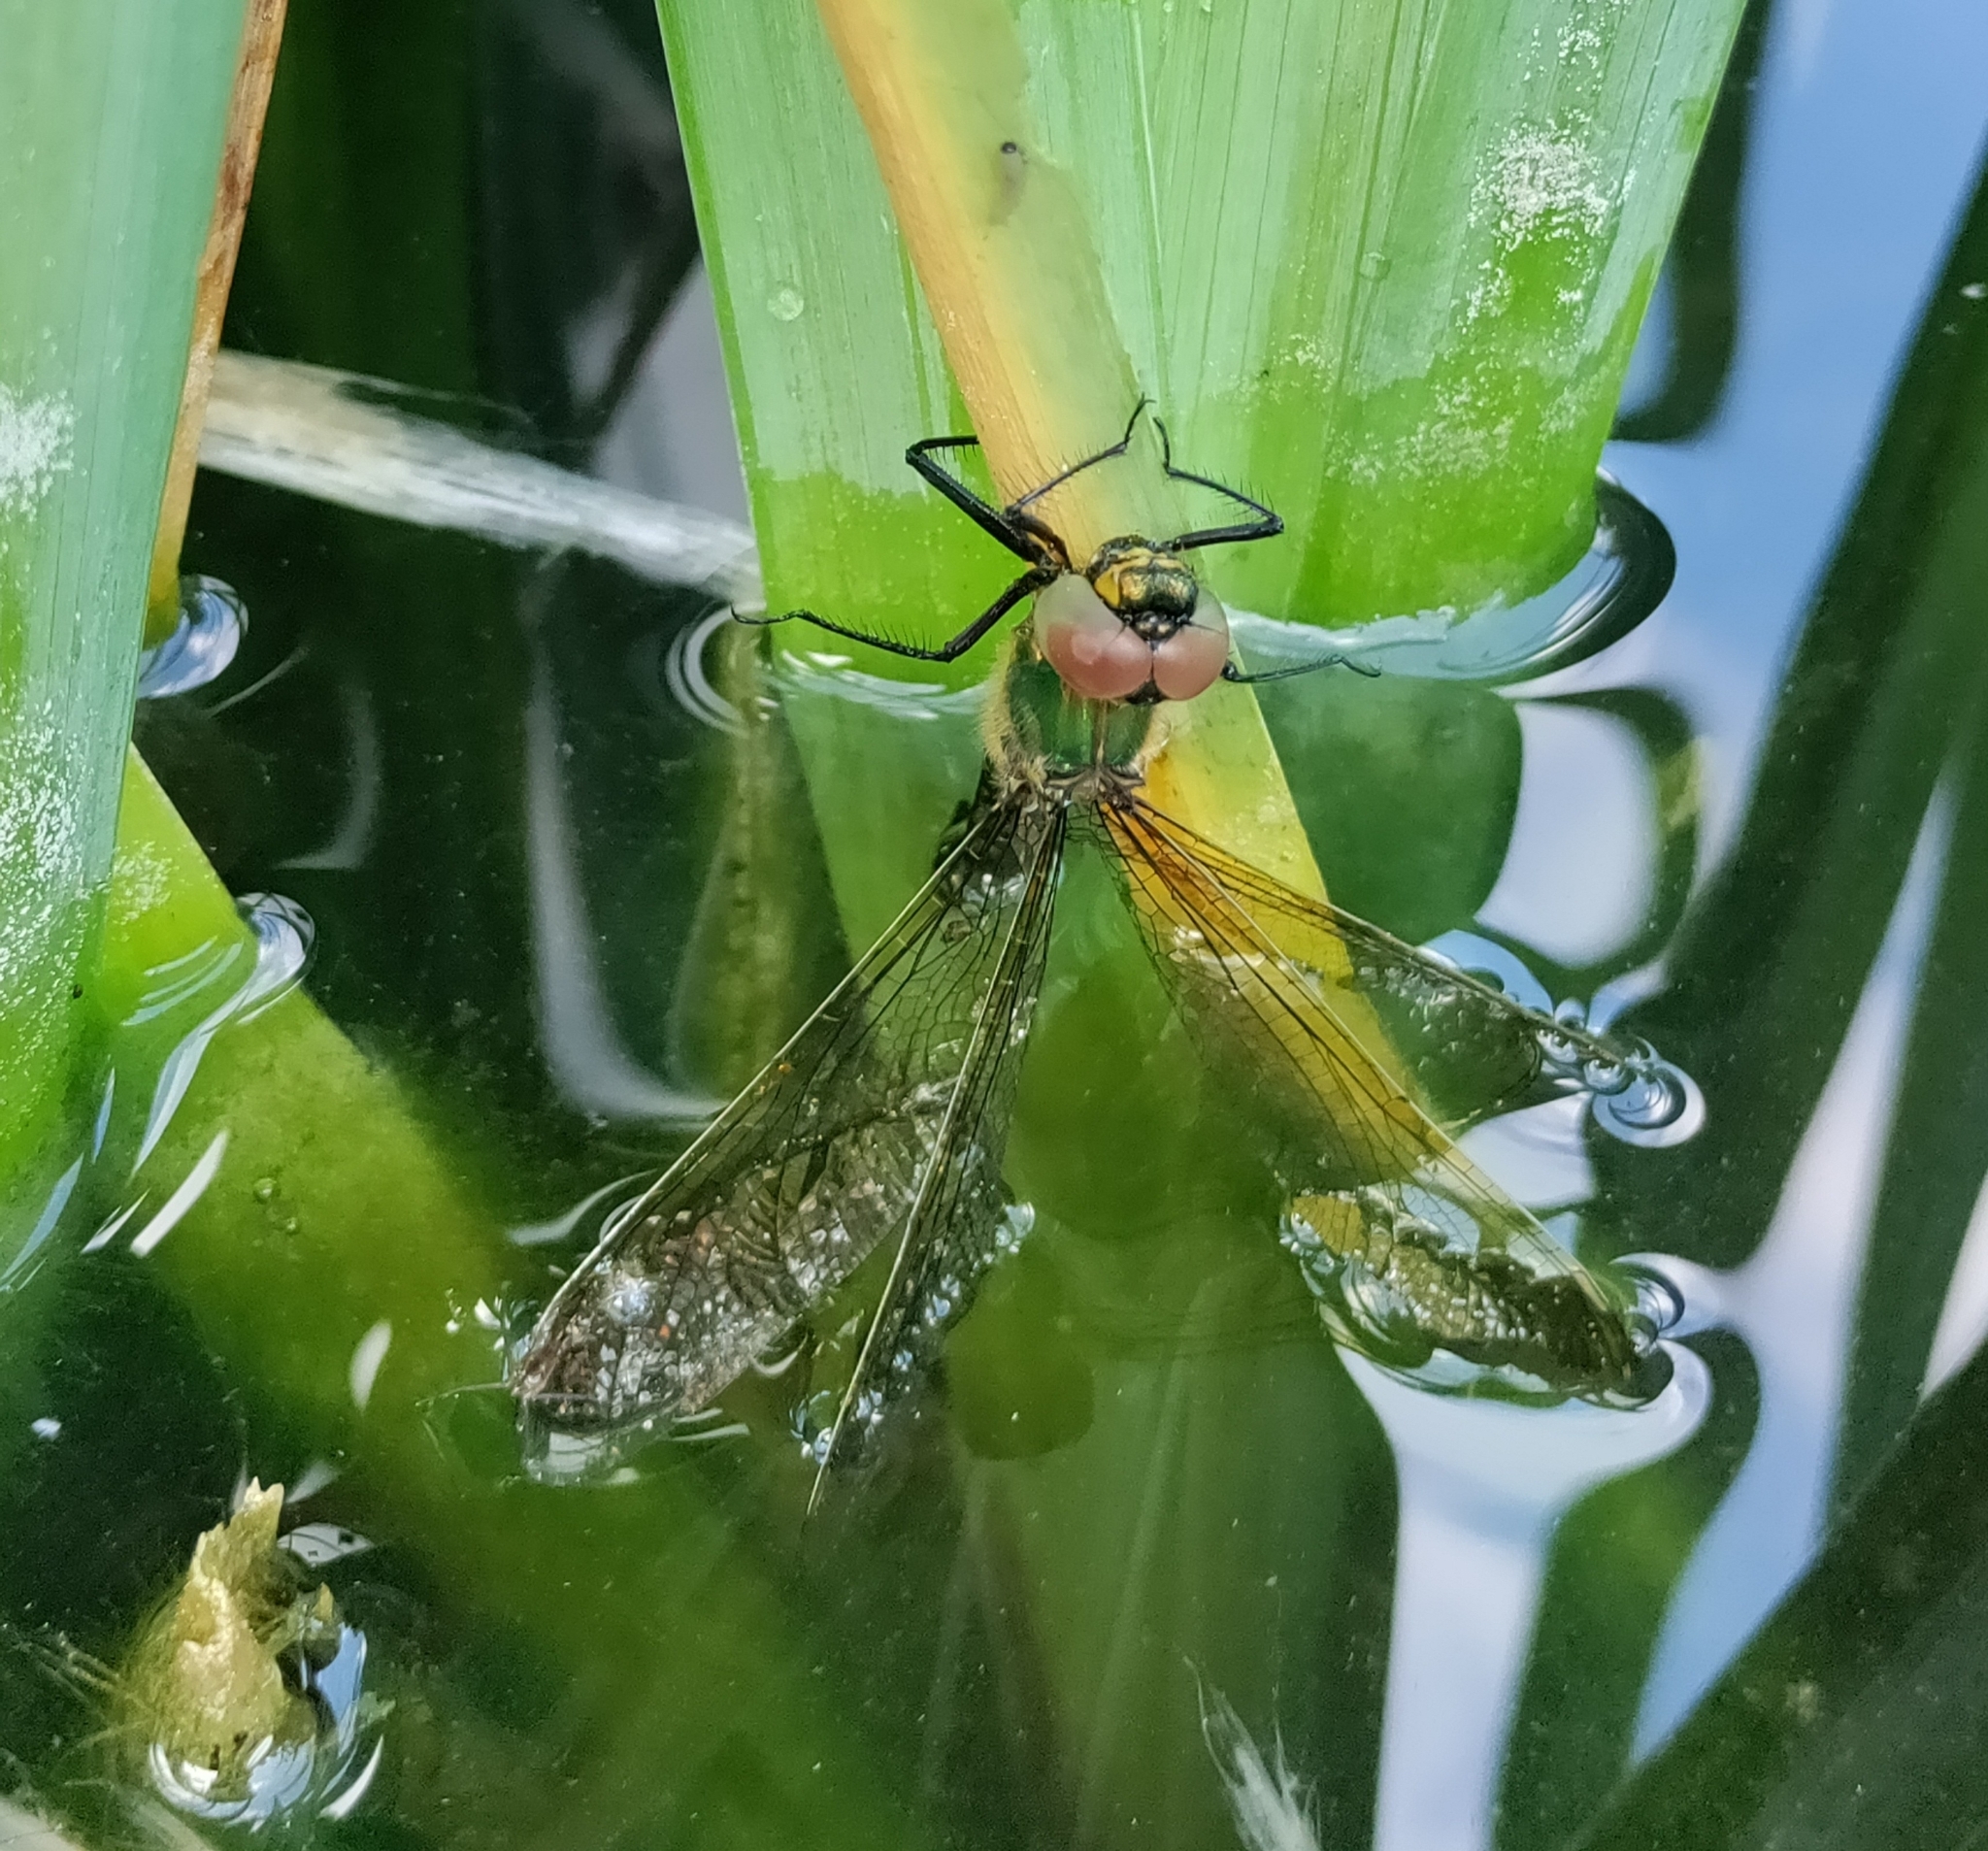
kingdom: Animalia
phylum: Arthropoda
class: Insecta
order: Odonata
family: Corduliidae
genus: Somatochlora
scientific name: Somatochlora metallica
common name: Brilliant emerald
